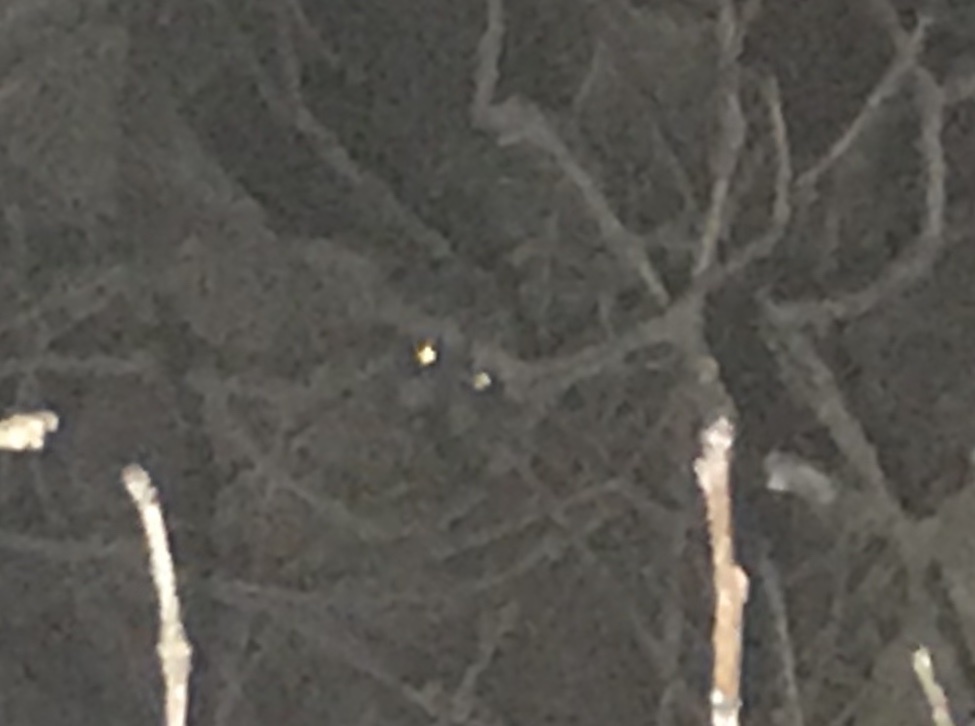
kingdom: Animalia
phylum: Chordata
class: Mammalia
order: Carnivora
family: Procyonidae
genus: Procyon
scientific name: Procyon lotor
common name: Raccoon
